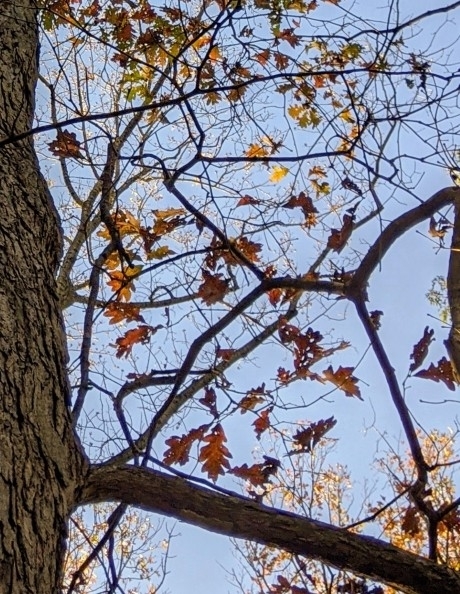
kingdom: Plantae
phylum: Tracheophyta
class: Magnoliopsida
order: Fagales
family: Fagaceae
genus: Quercus
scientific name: Quercus alba
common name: White oak
